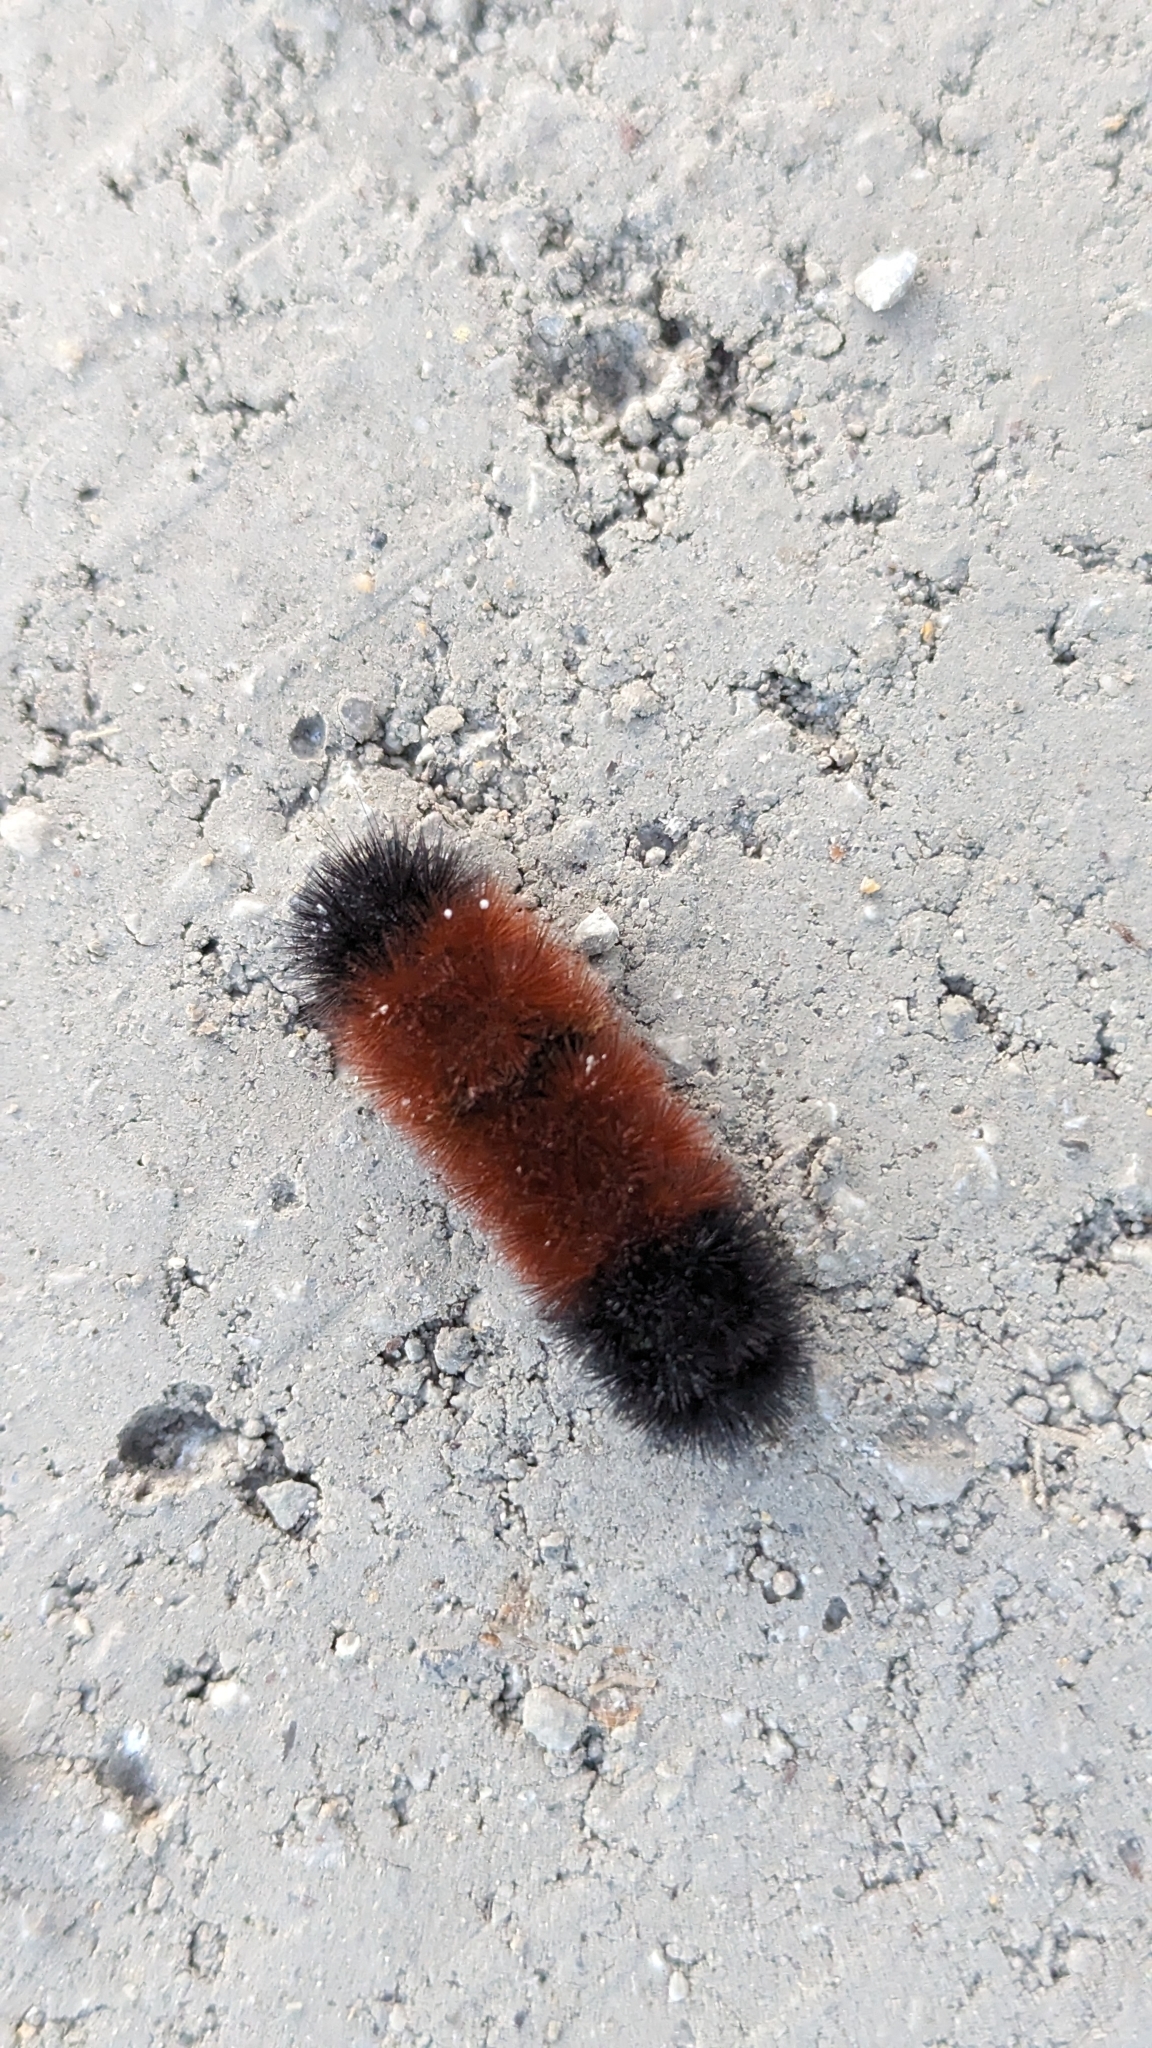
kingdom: Animalia
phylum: Arthropoda
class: Insecta
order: Lepidoptera
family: Erebidae
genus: Pyrrharctia
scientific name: Pyrrharctia isabella
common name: Isabella tiger moth
